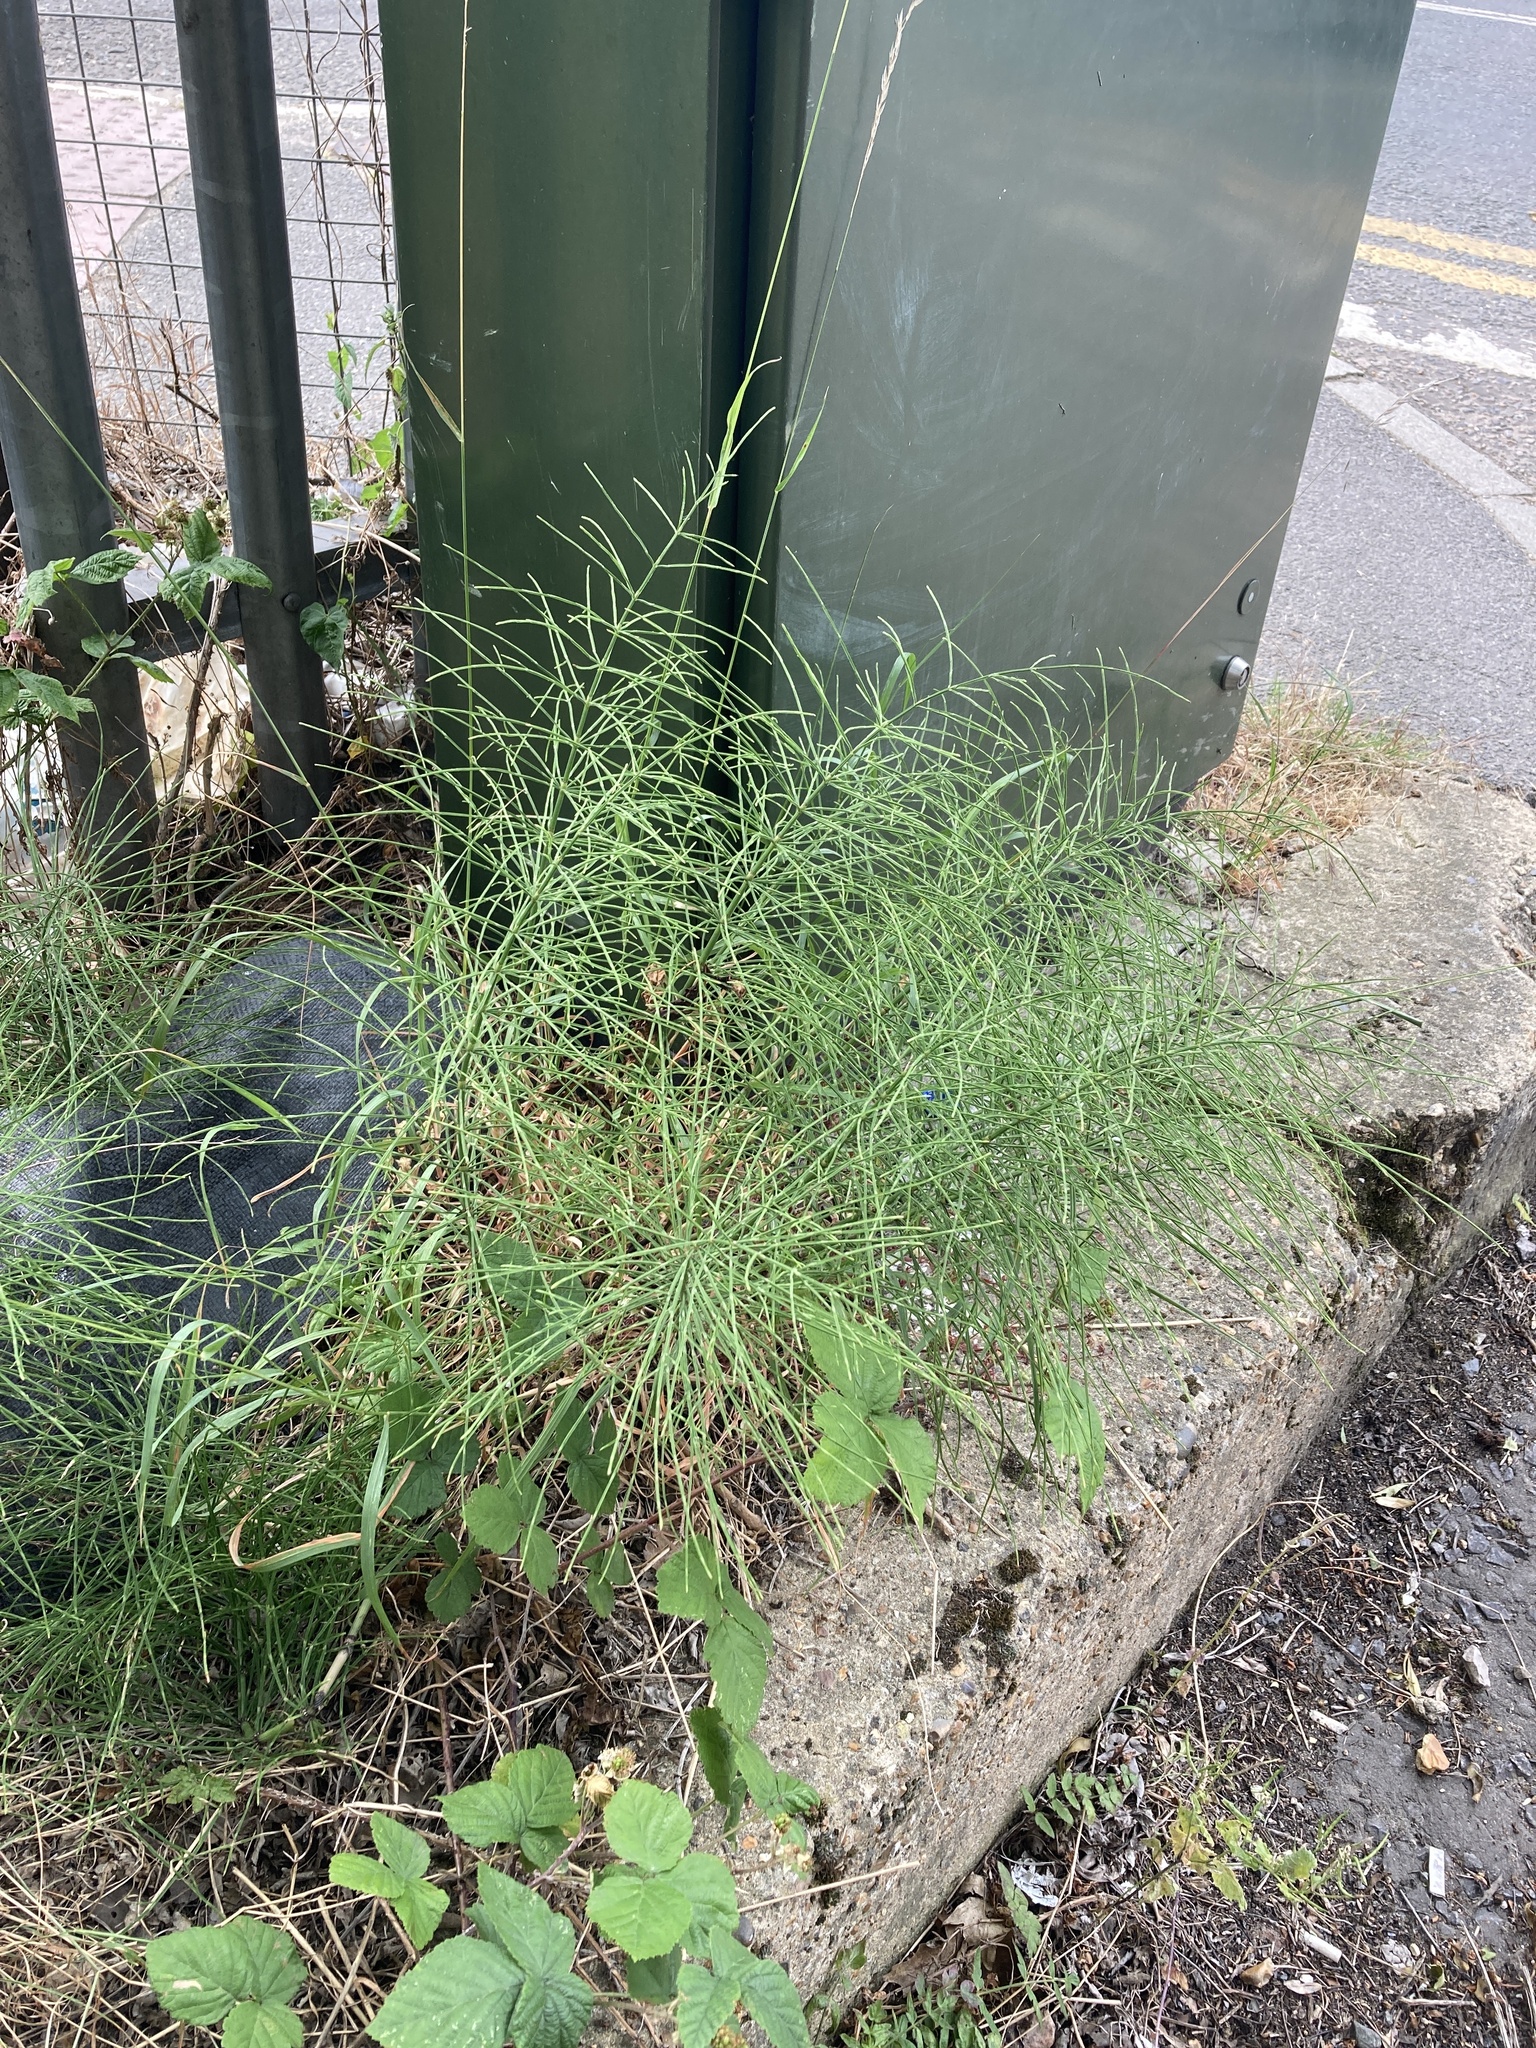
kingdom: Plantae
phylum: Tracheophyta
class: Polypodiopsida
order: Equisetales
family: Equisetaceae
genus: Equisetum
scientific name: Equisetum arvense
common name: Field horsetail
